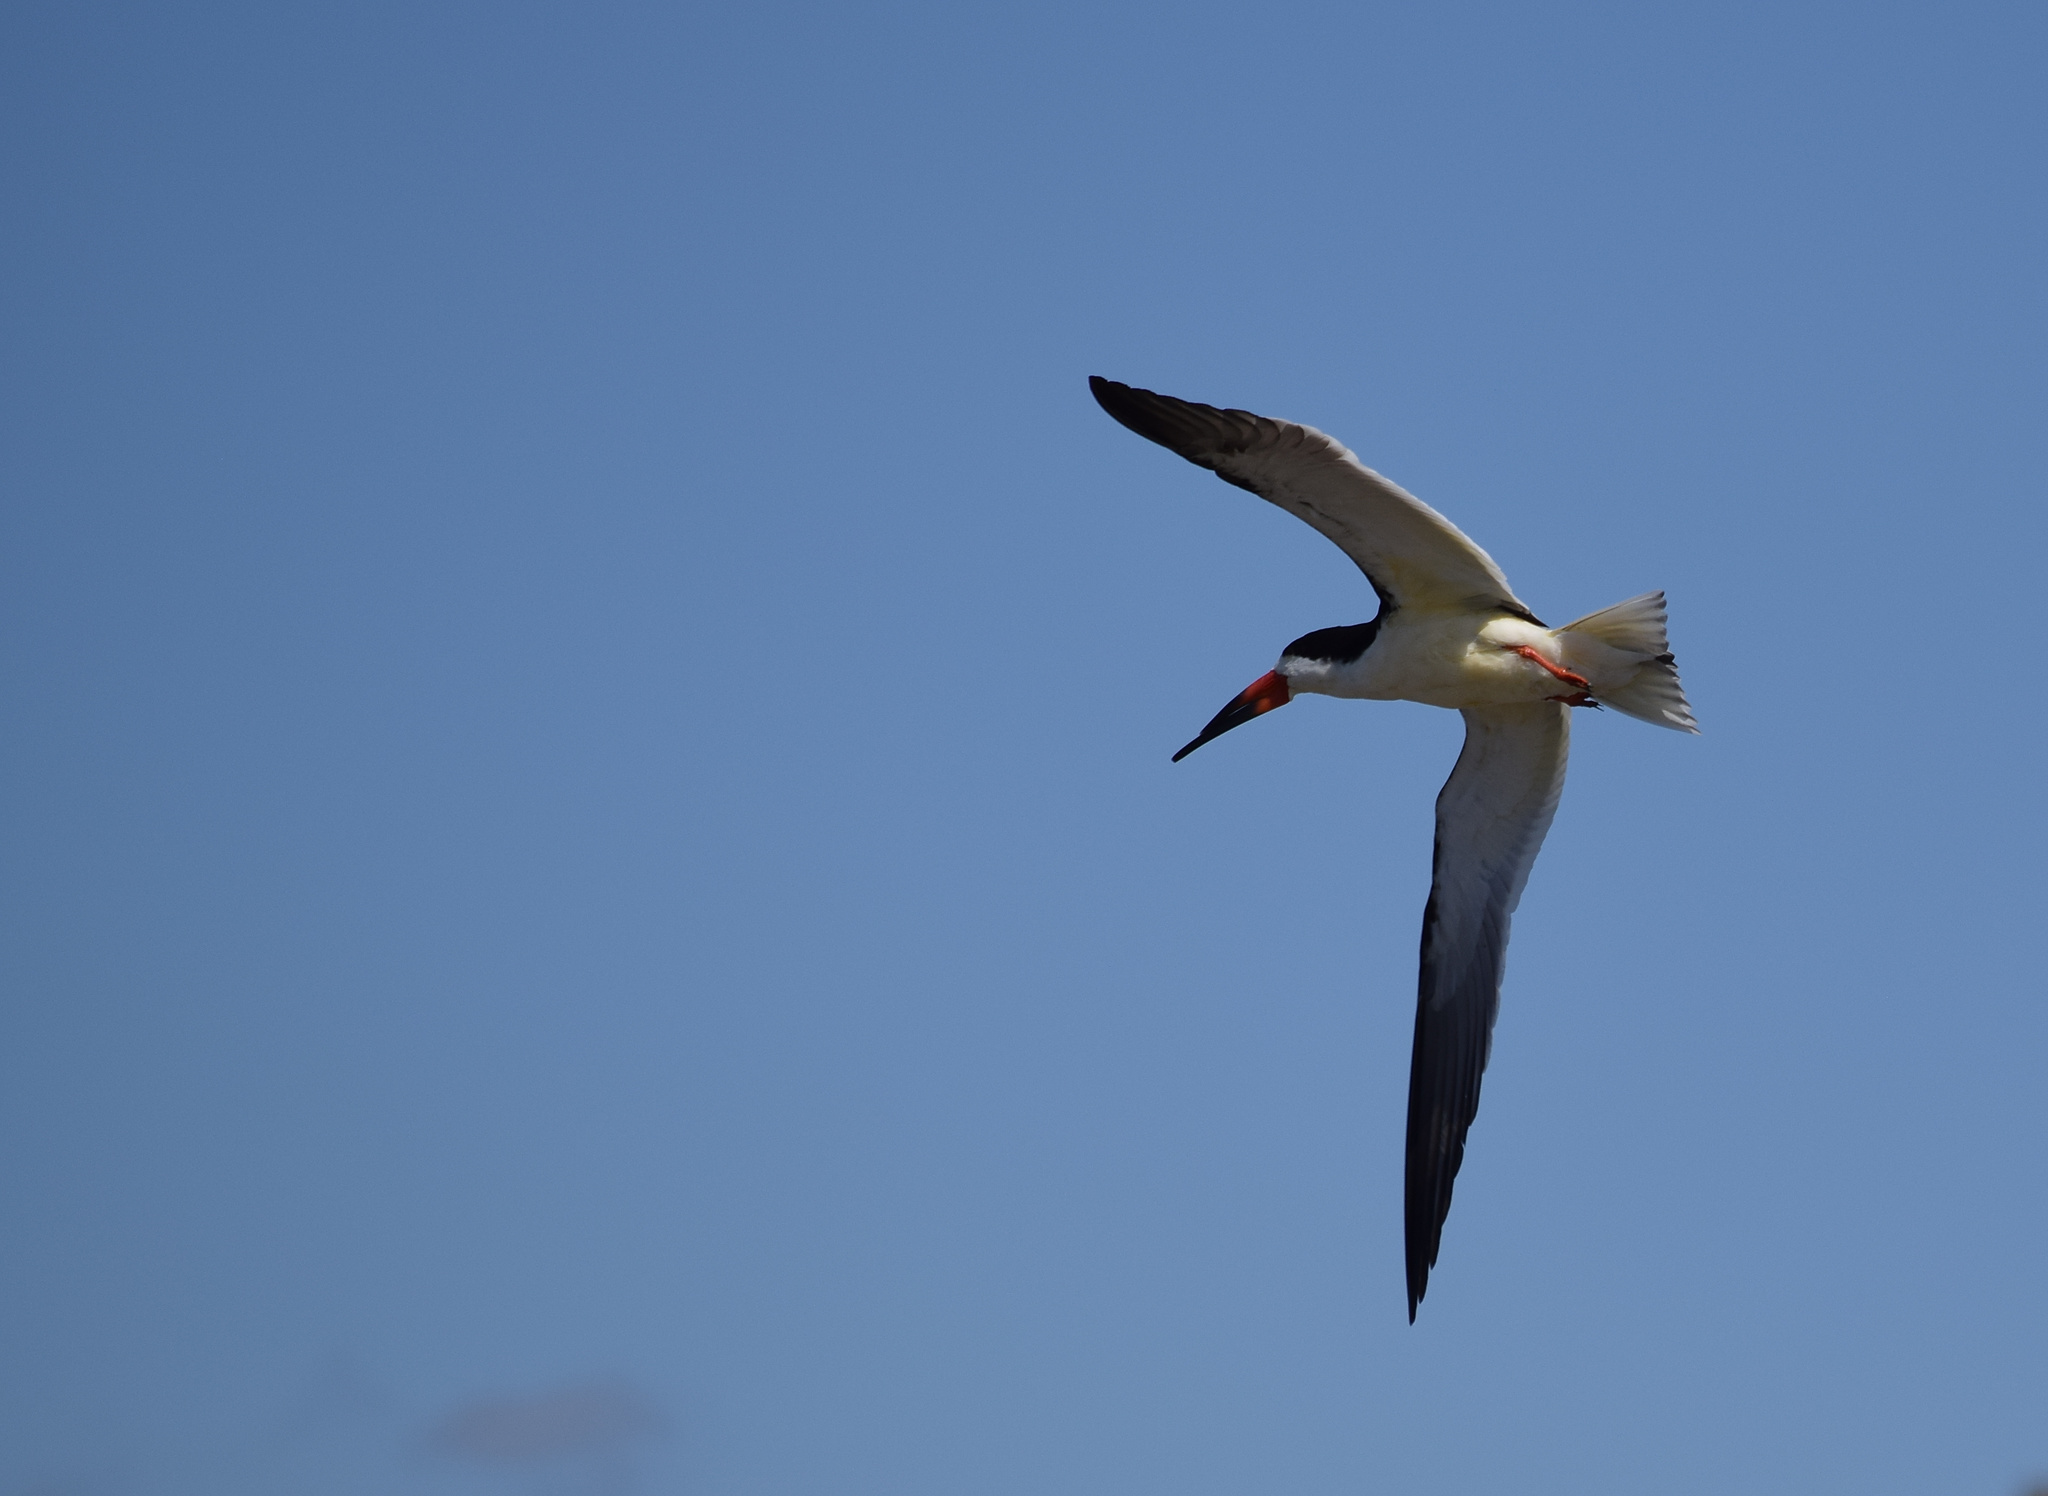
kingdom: Animalia
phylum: Chordata
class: Aves
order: Charadriiformes
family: Laridae
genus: Rynchops
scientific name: Rynchops niger
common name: Black skimmer
